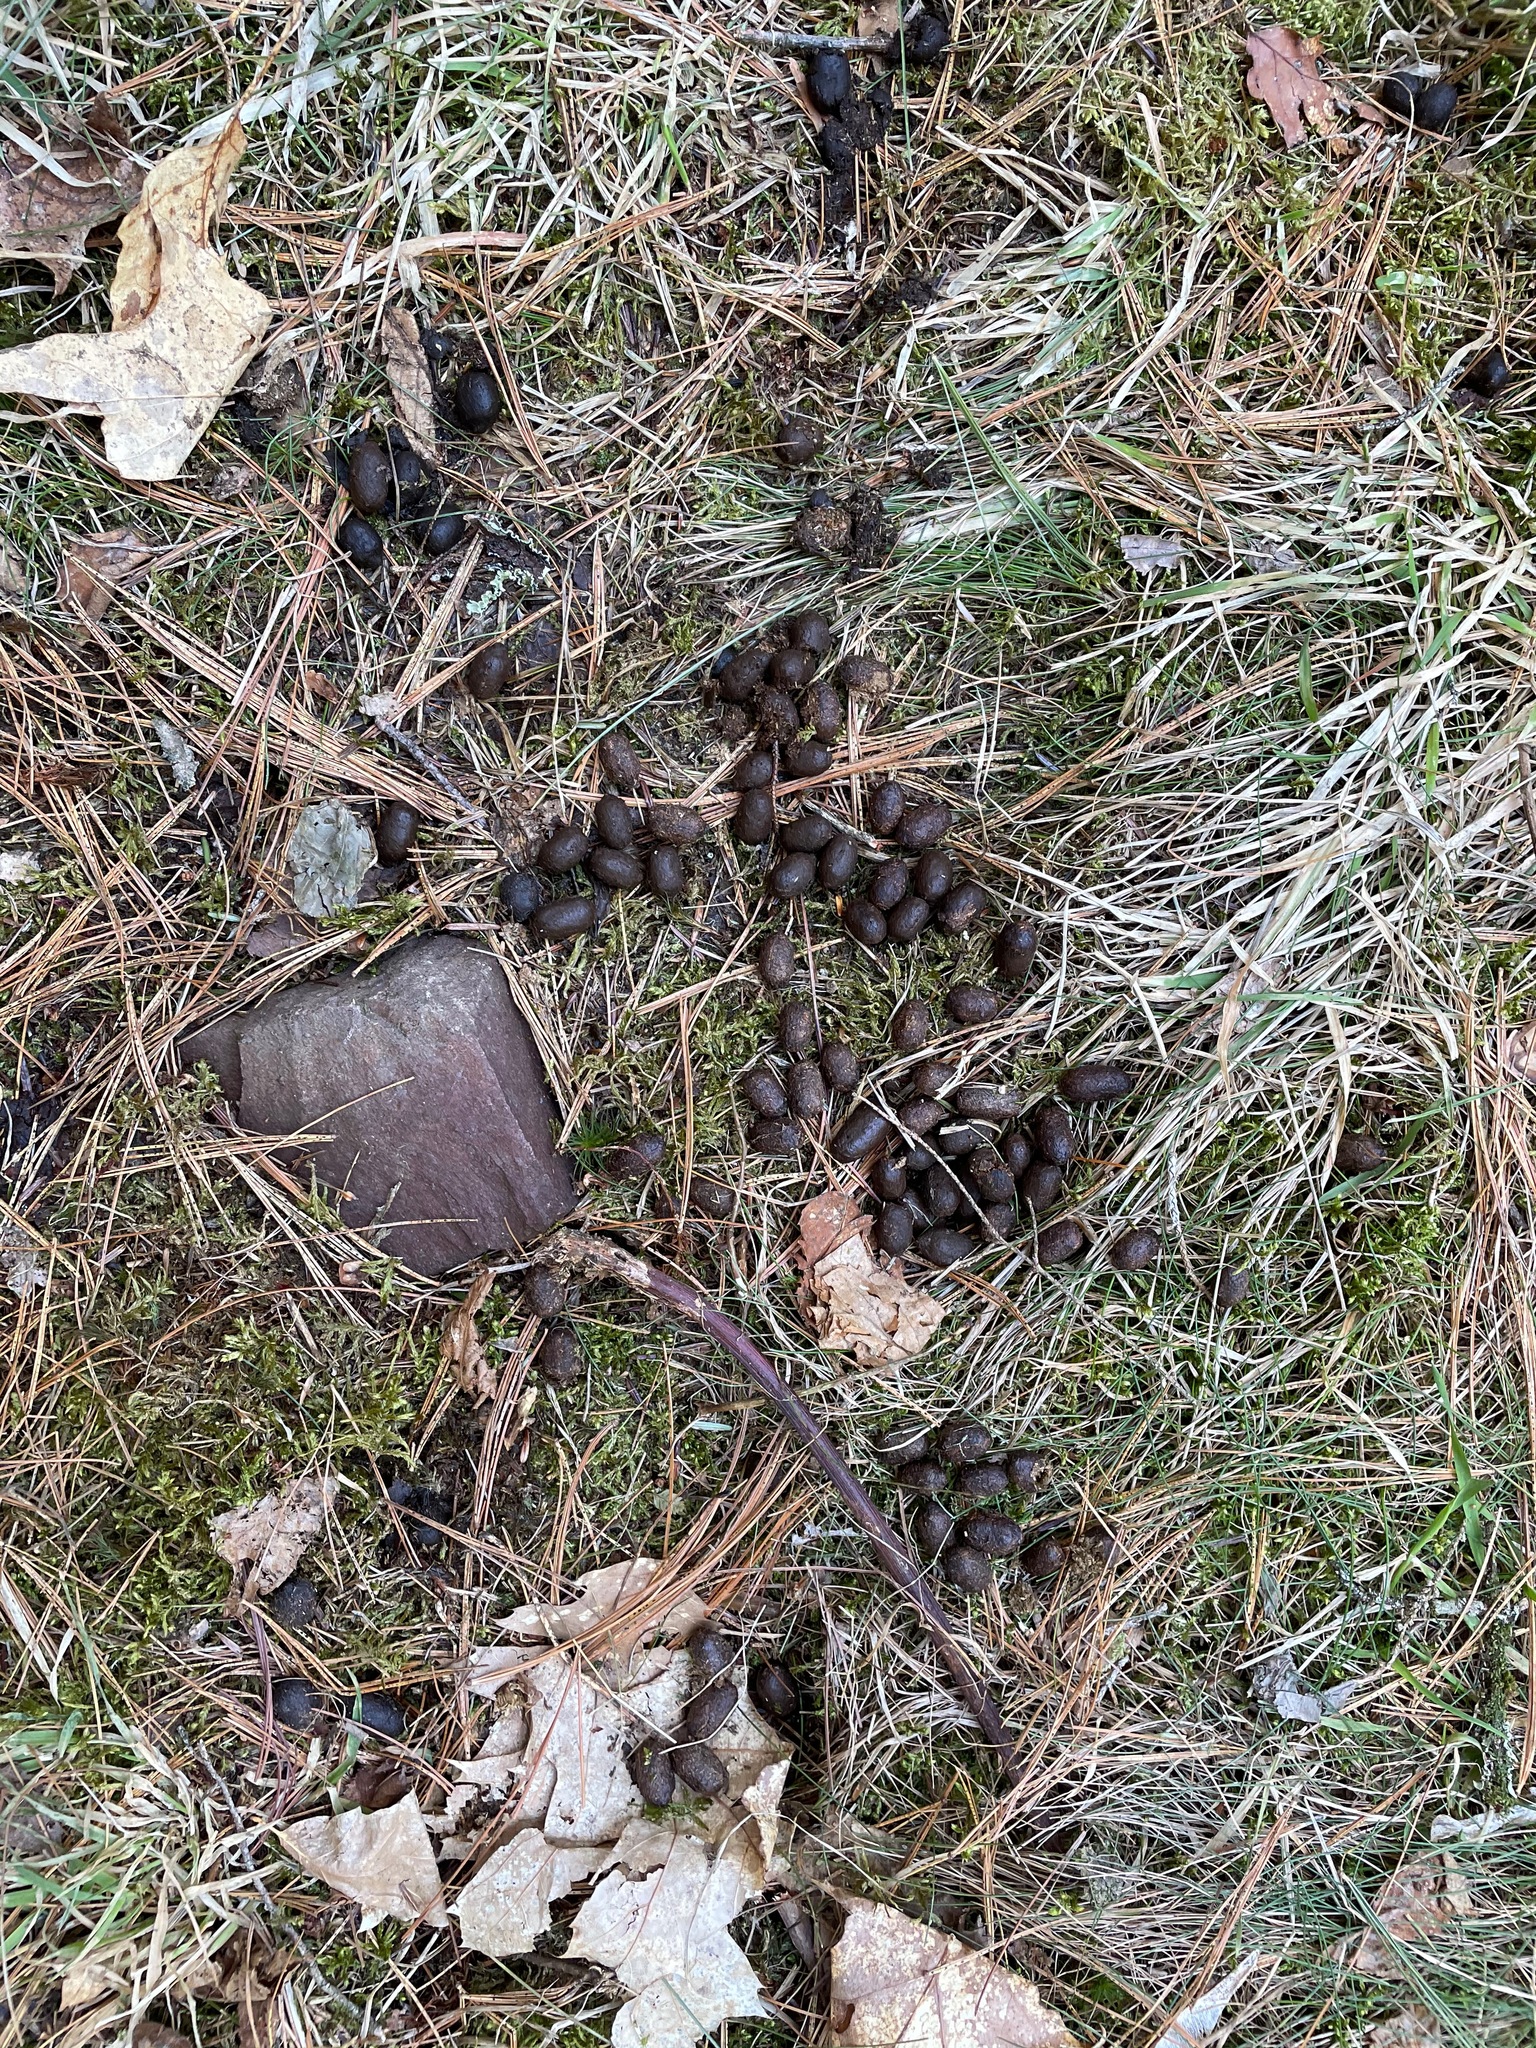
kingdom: Animalia
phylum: Chordata
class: Mammalia
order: Artiodactyla
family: Cervidae
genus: Odocoileus
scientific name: Odocoileus virginianus
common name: White-tailed deer
